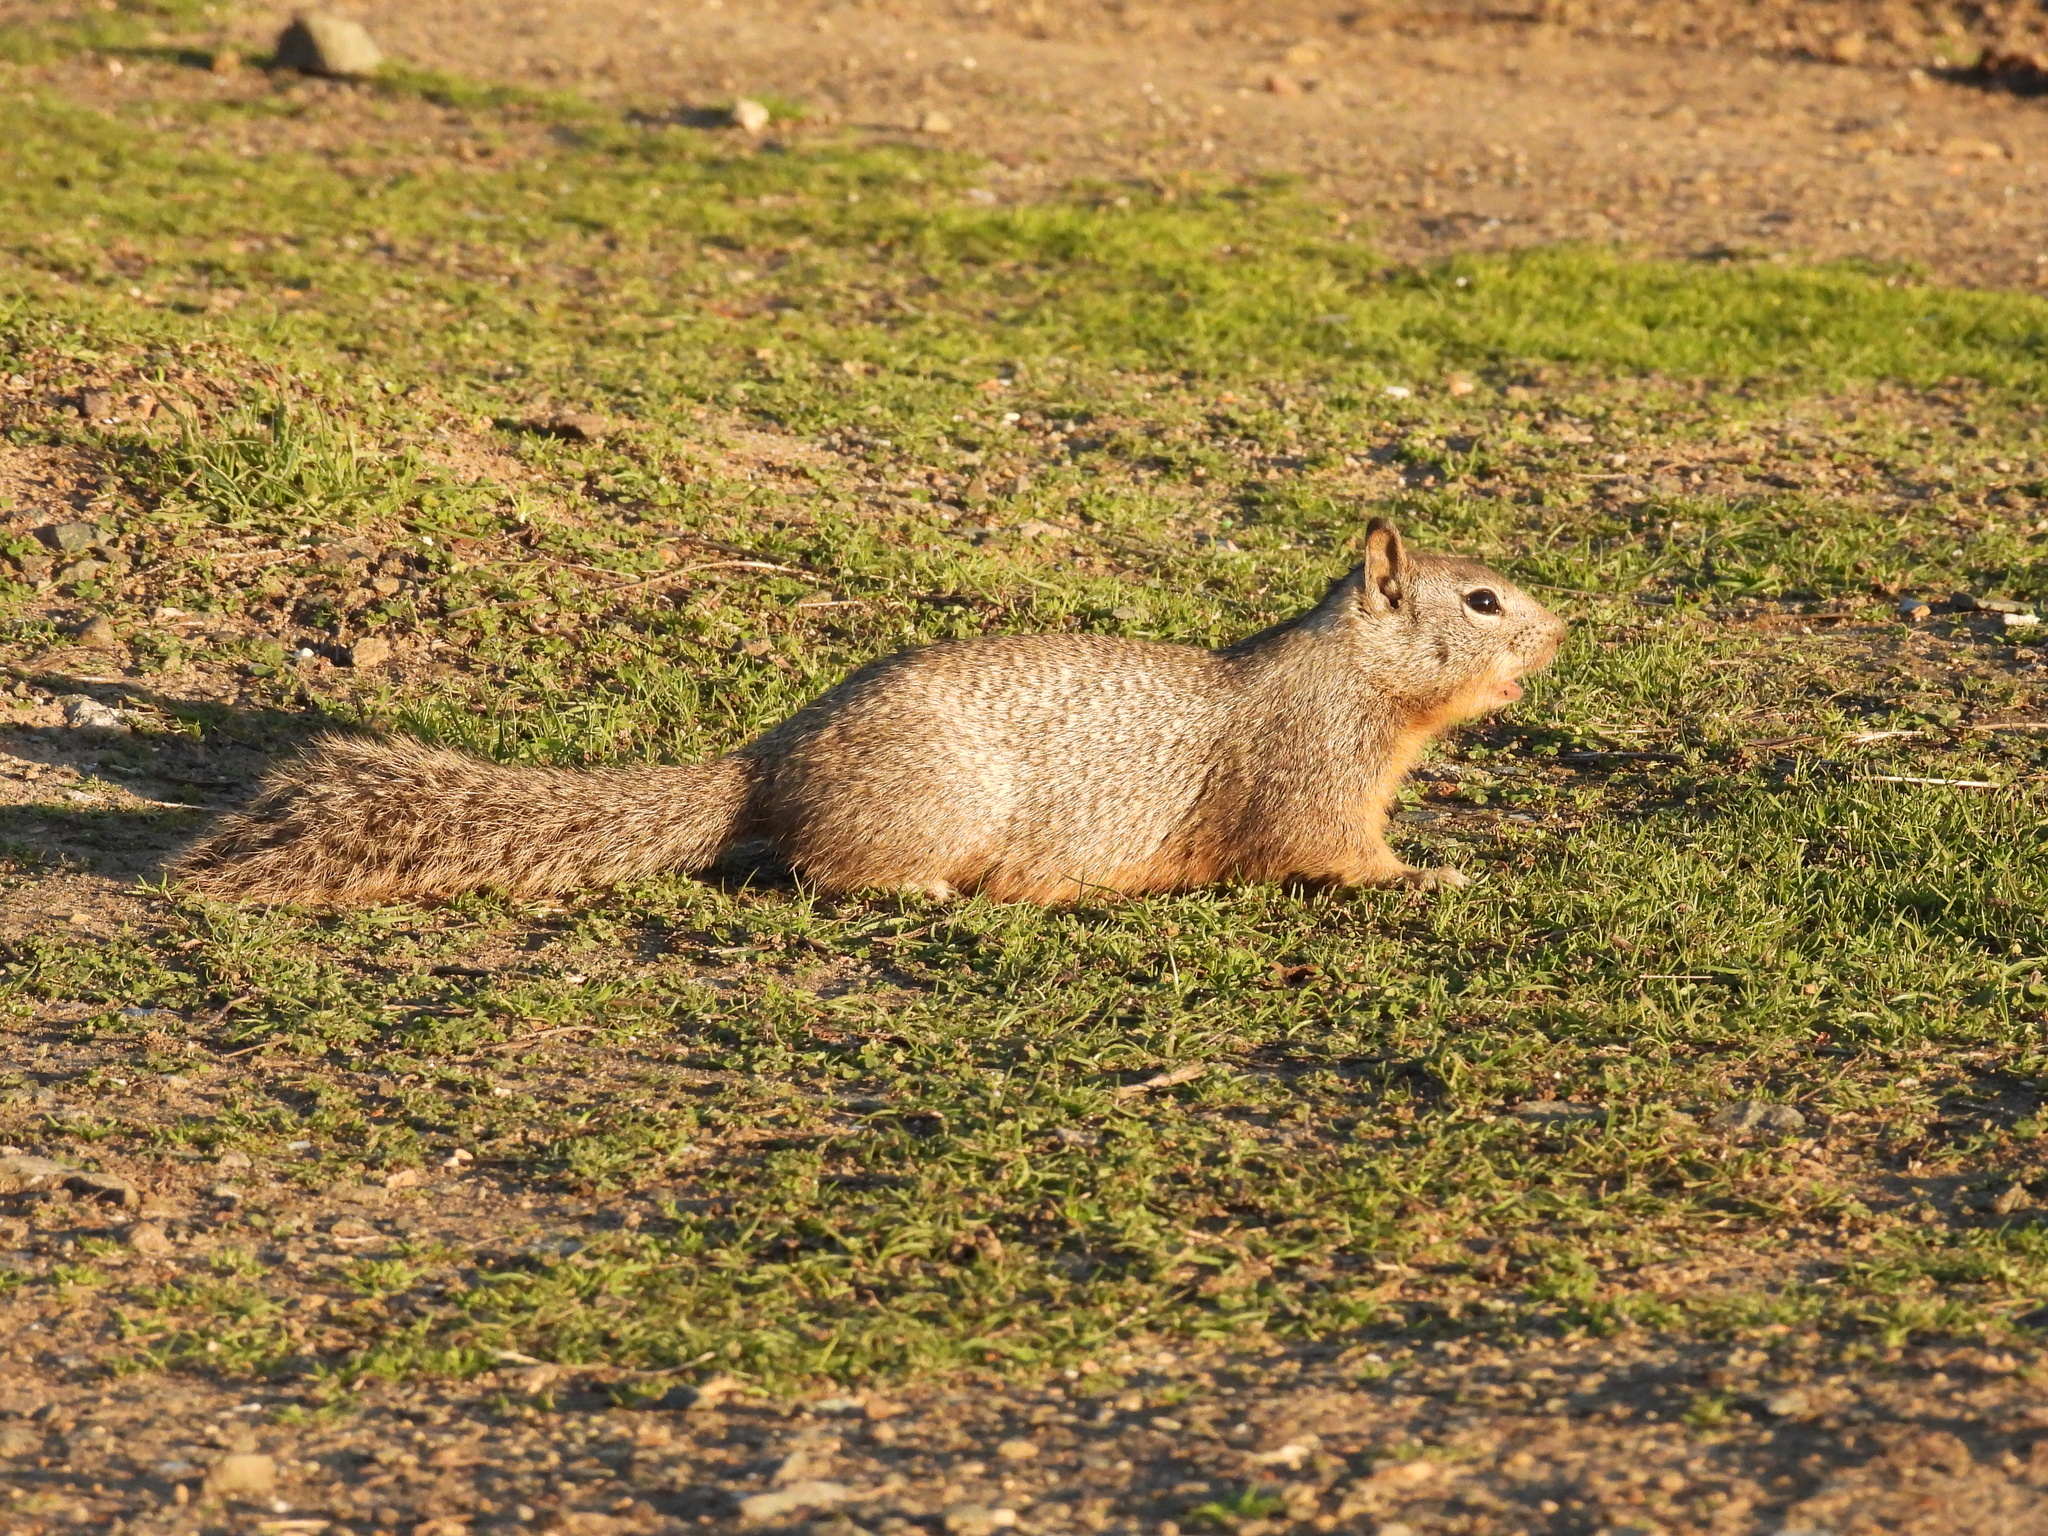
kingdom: Animalia
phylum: Chordata
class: Mammalia
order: Rodentia
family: Sciuridae
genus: Otospermophilus
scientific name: Otospermophilus beecheyi
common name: California ground squirrel
